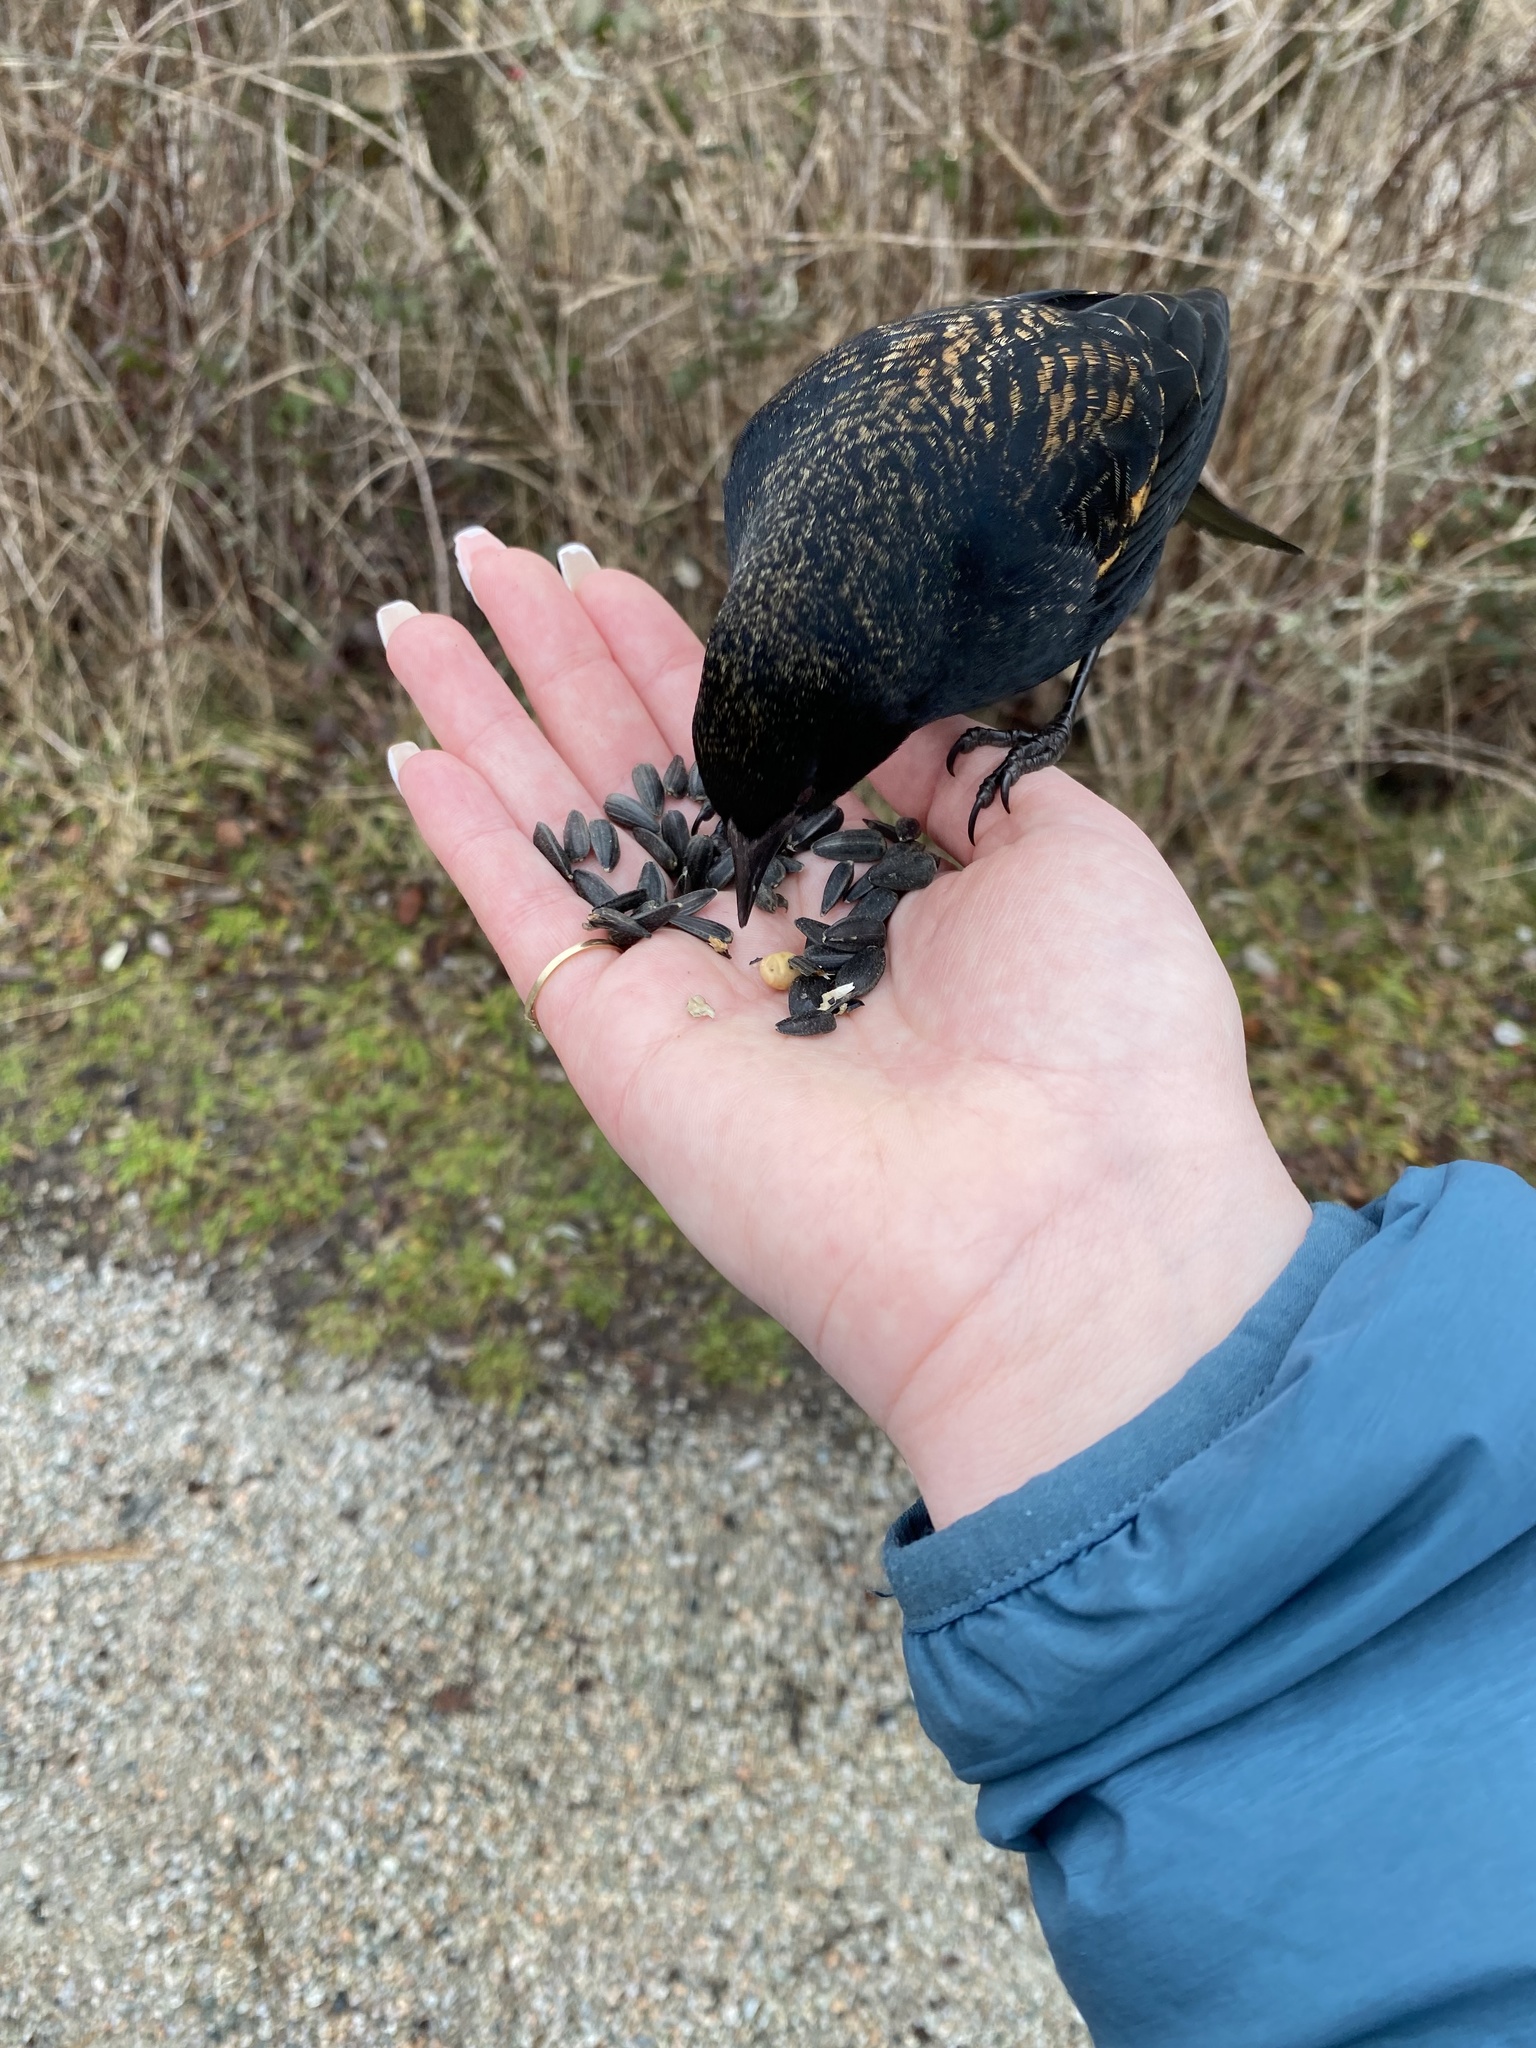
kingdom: Animalia
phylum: Chordata
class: Aves
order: Passeriformes
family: Icteridae
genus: Agelaius
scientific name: Agelaius phoeniceus
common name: Red-winged blackbird
